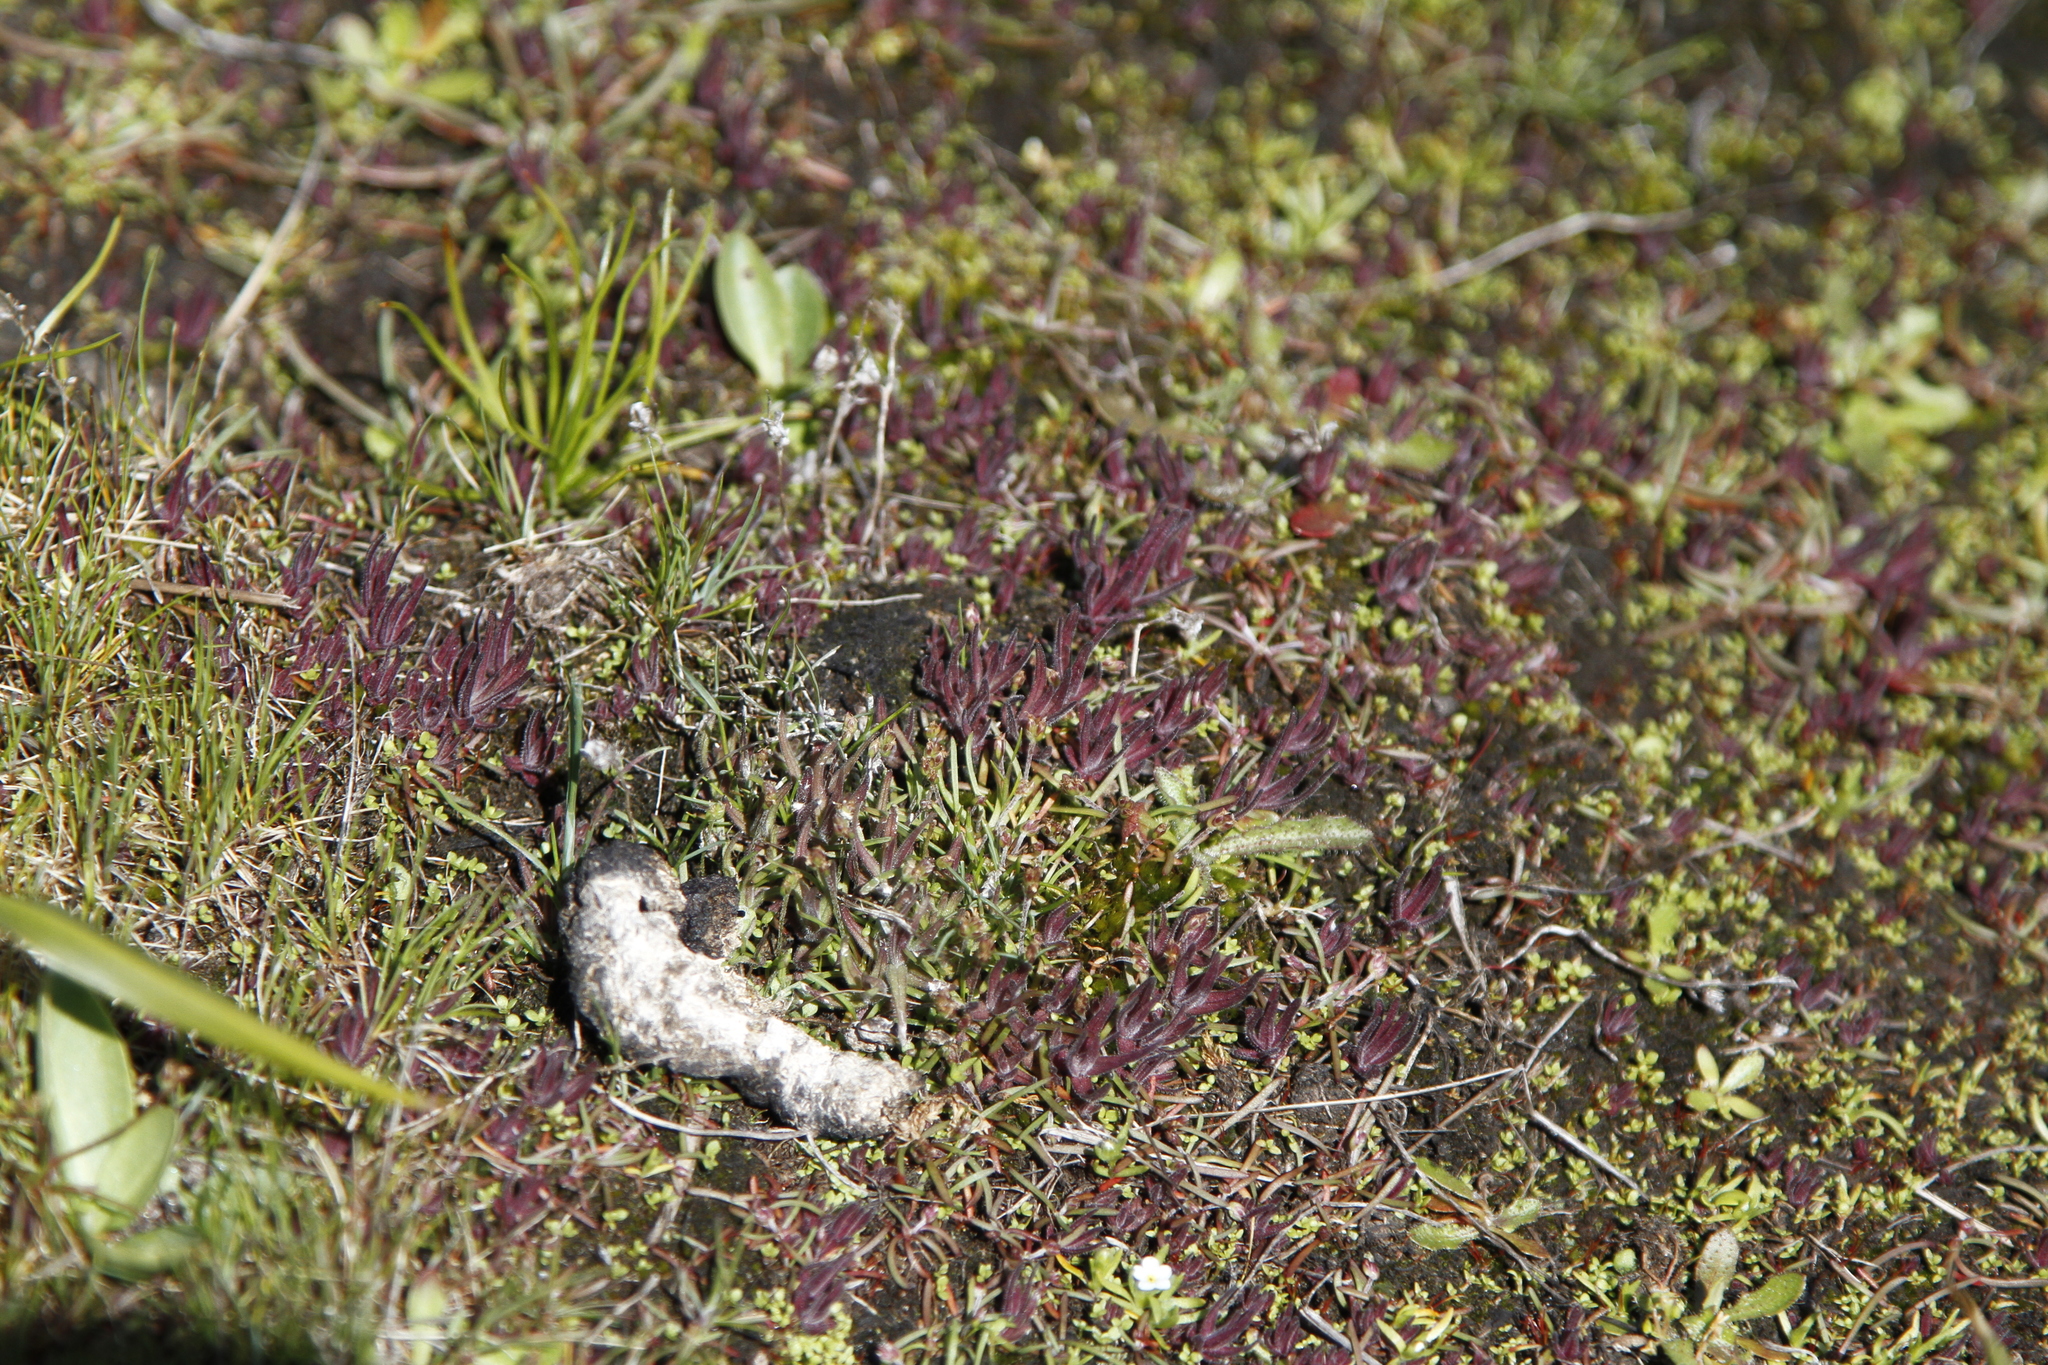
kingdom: Plantae
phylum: Tracheophyta
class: Magnoliopsida
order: Lamiales
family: Orobanchaceae
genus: Castilleja
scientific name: Castilleja victoriae
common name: Victoria paintbrush
